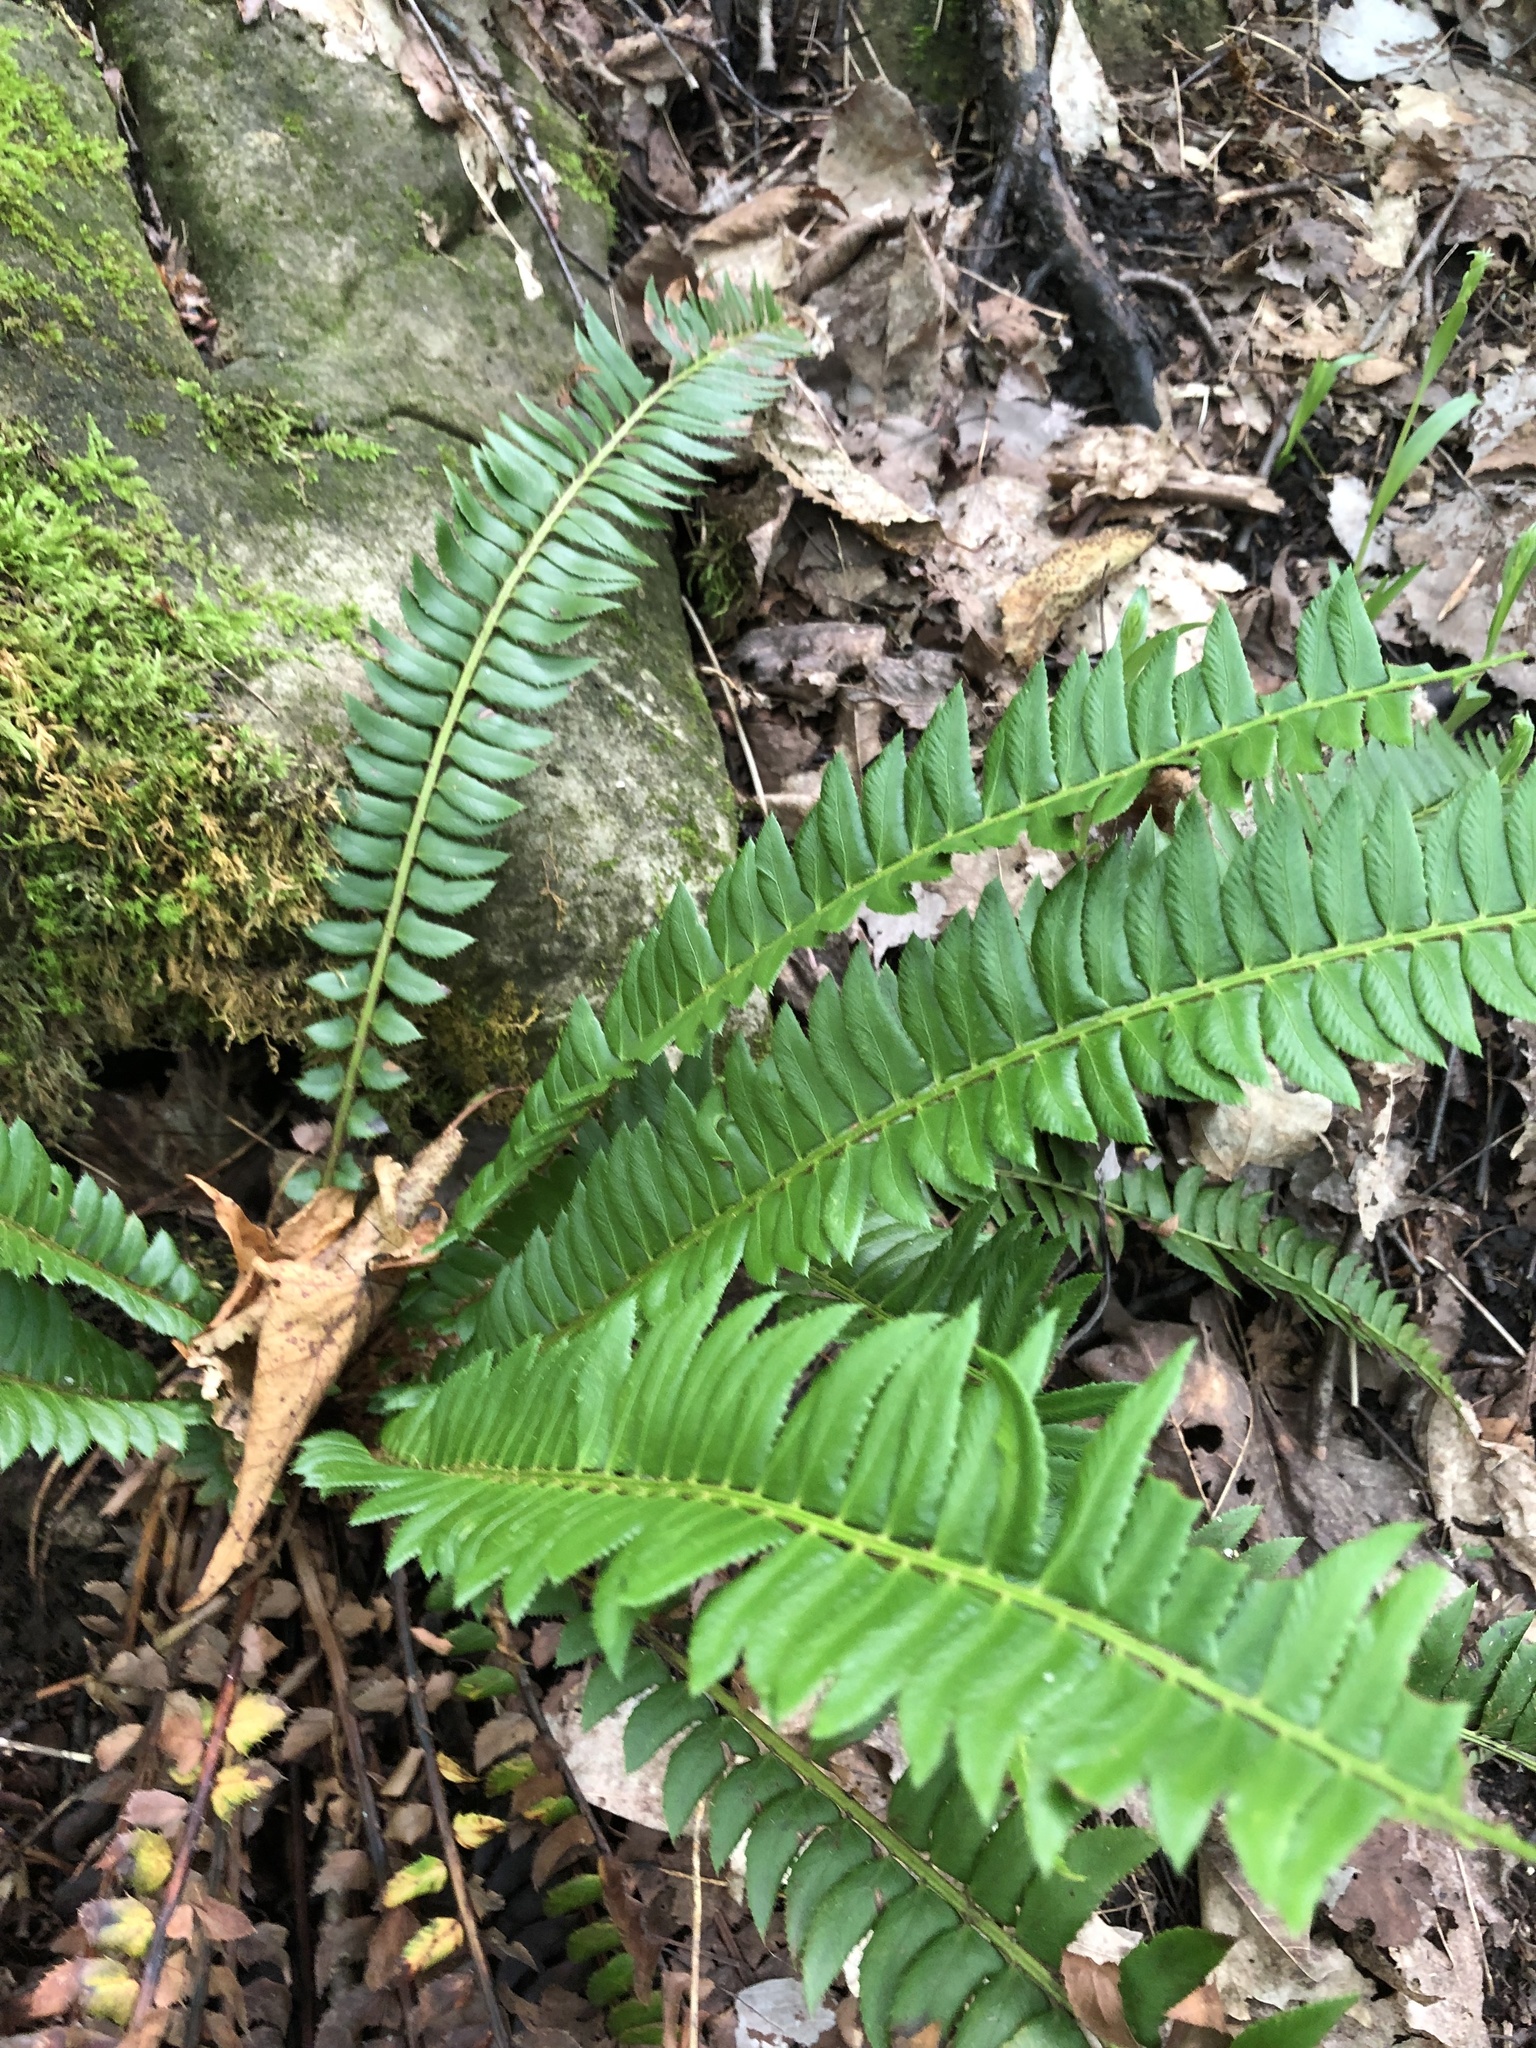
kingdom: Plantae
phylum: Tracheophyta
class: Polypodiopsida
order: Polypodiales
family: Dryopteridaceae
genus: Polystichum
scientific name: Polystichum lonchitis
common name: Holly fern
